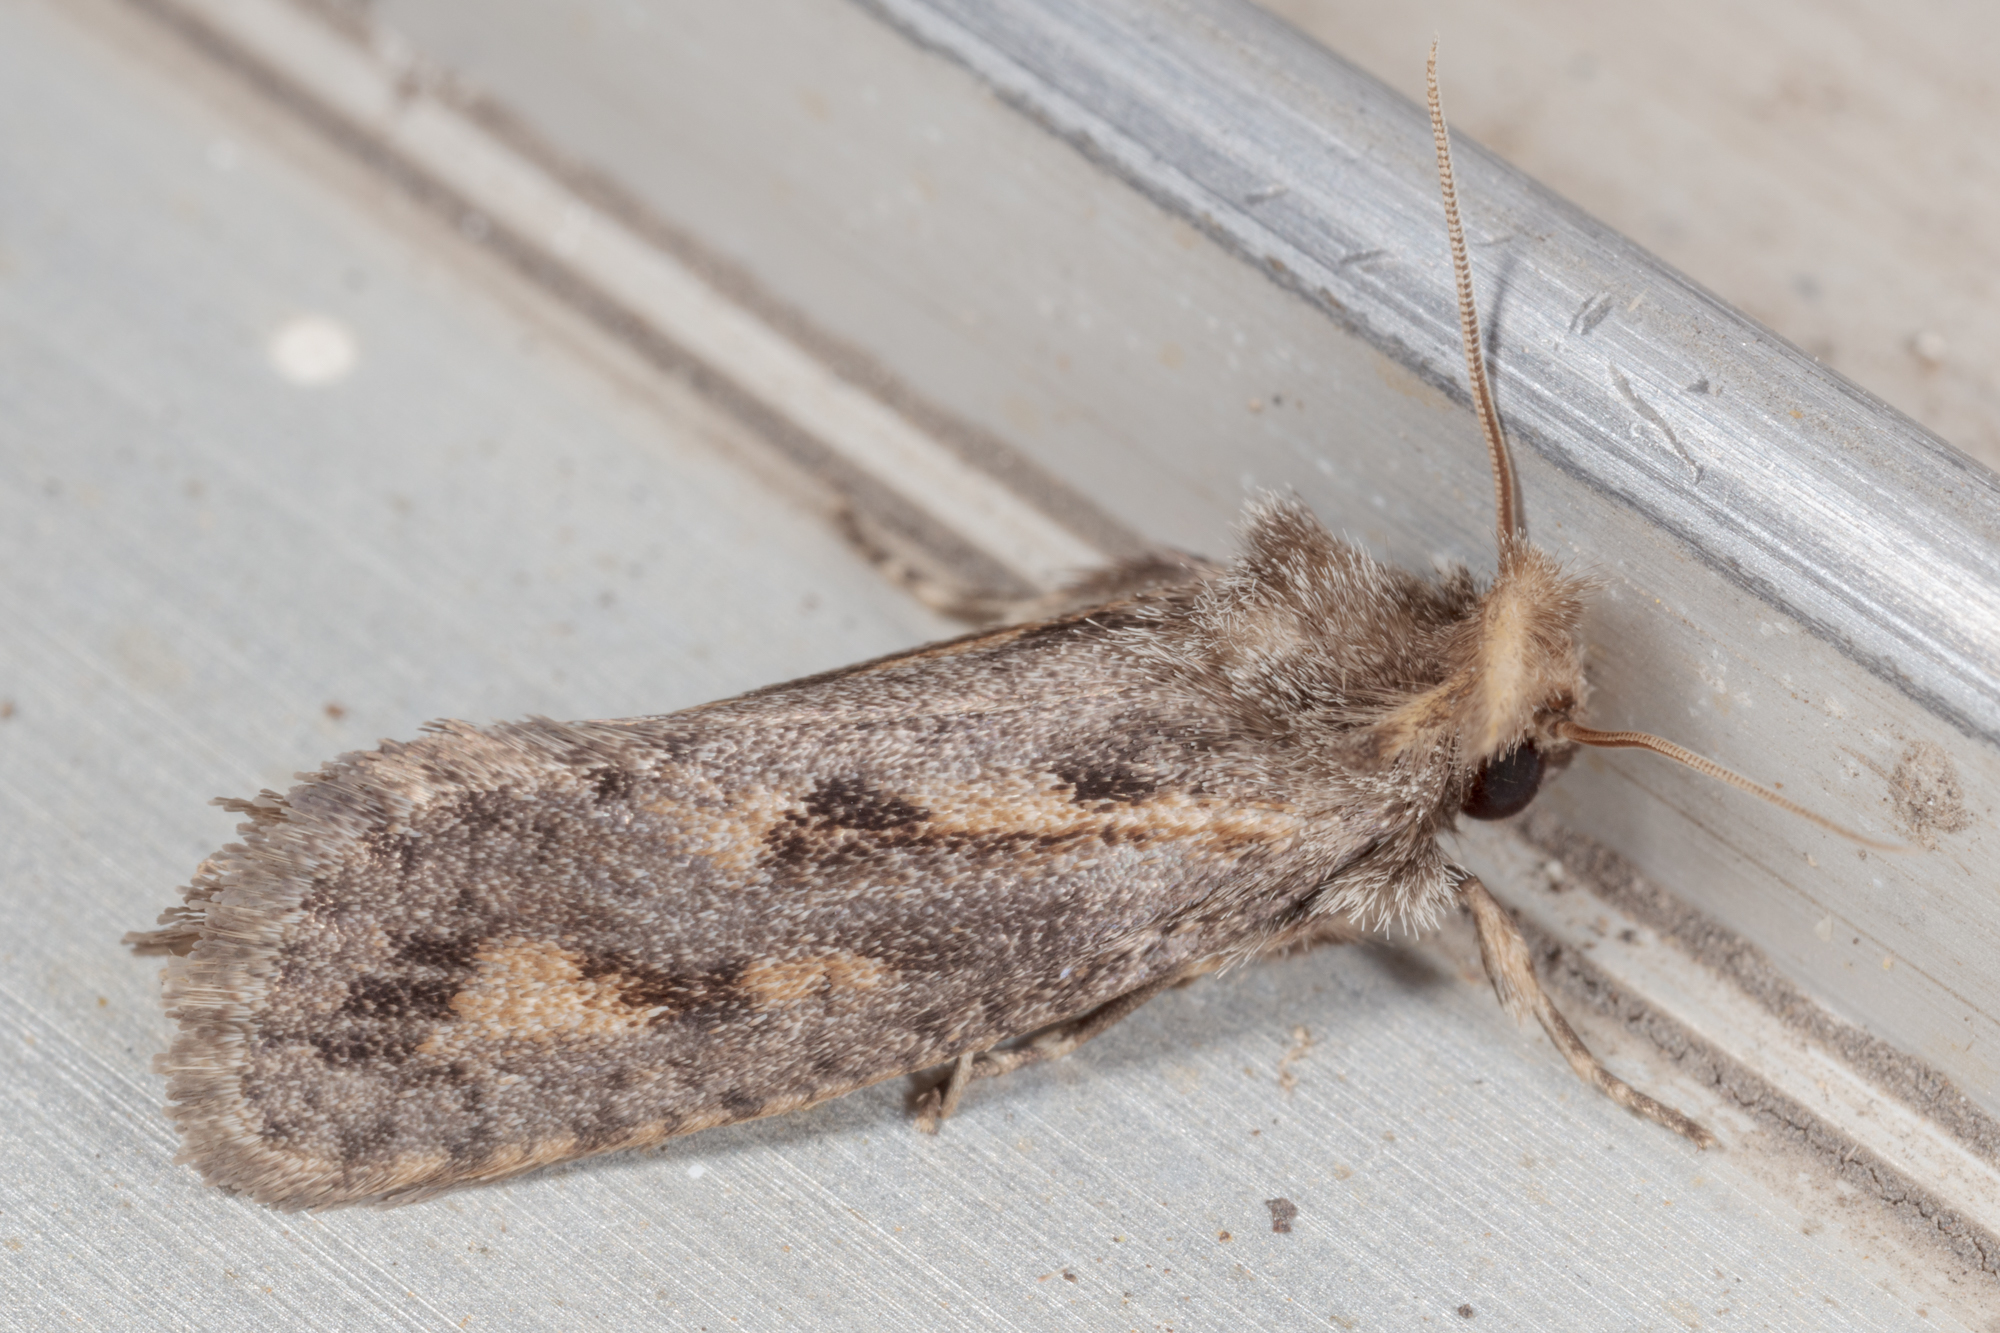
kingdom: Animalia
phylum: Arthropoda
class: Insecta
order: Lepidoptera
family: Tineidae
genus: Acrolophus
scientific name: Acrolophus popeanella
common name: Clemens' grass tubeworm moth
